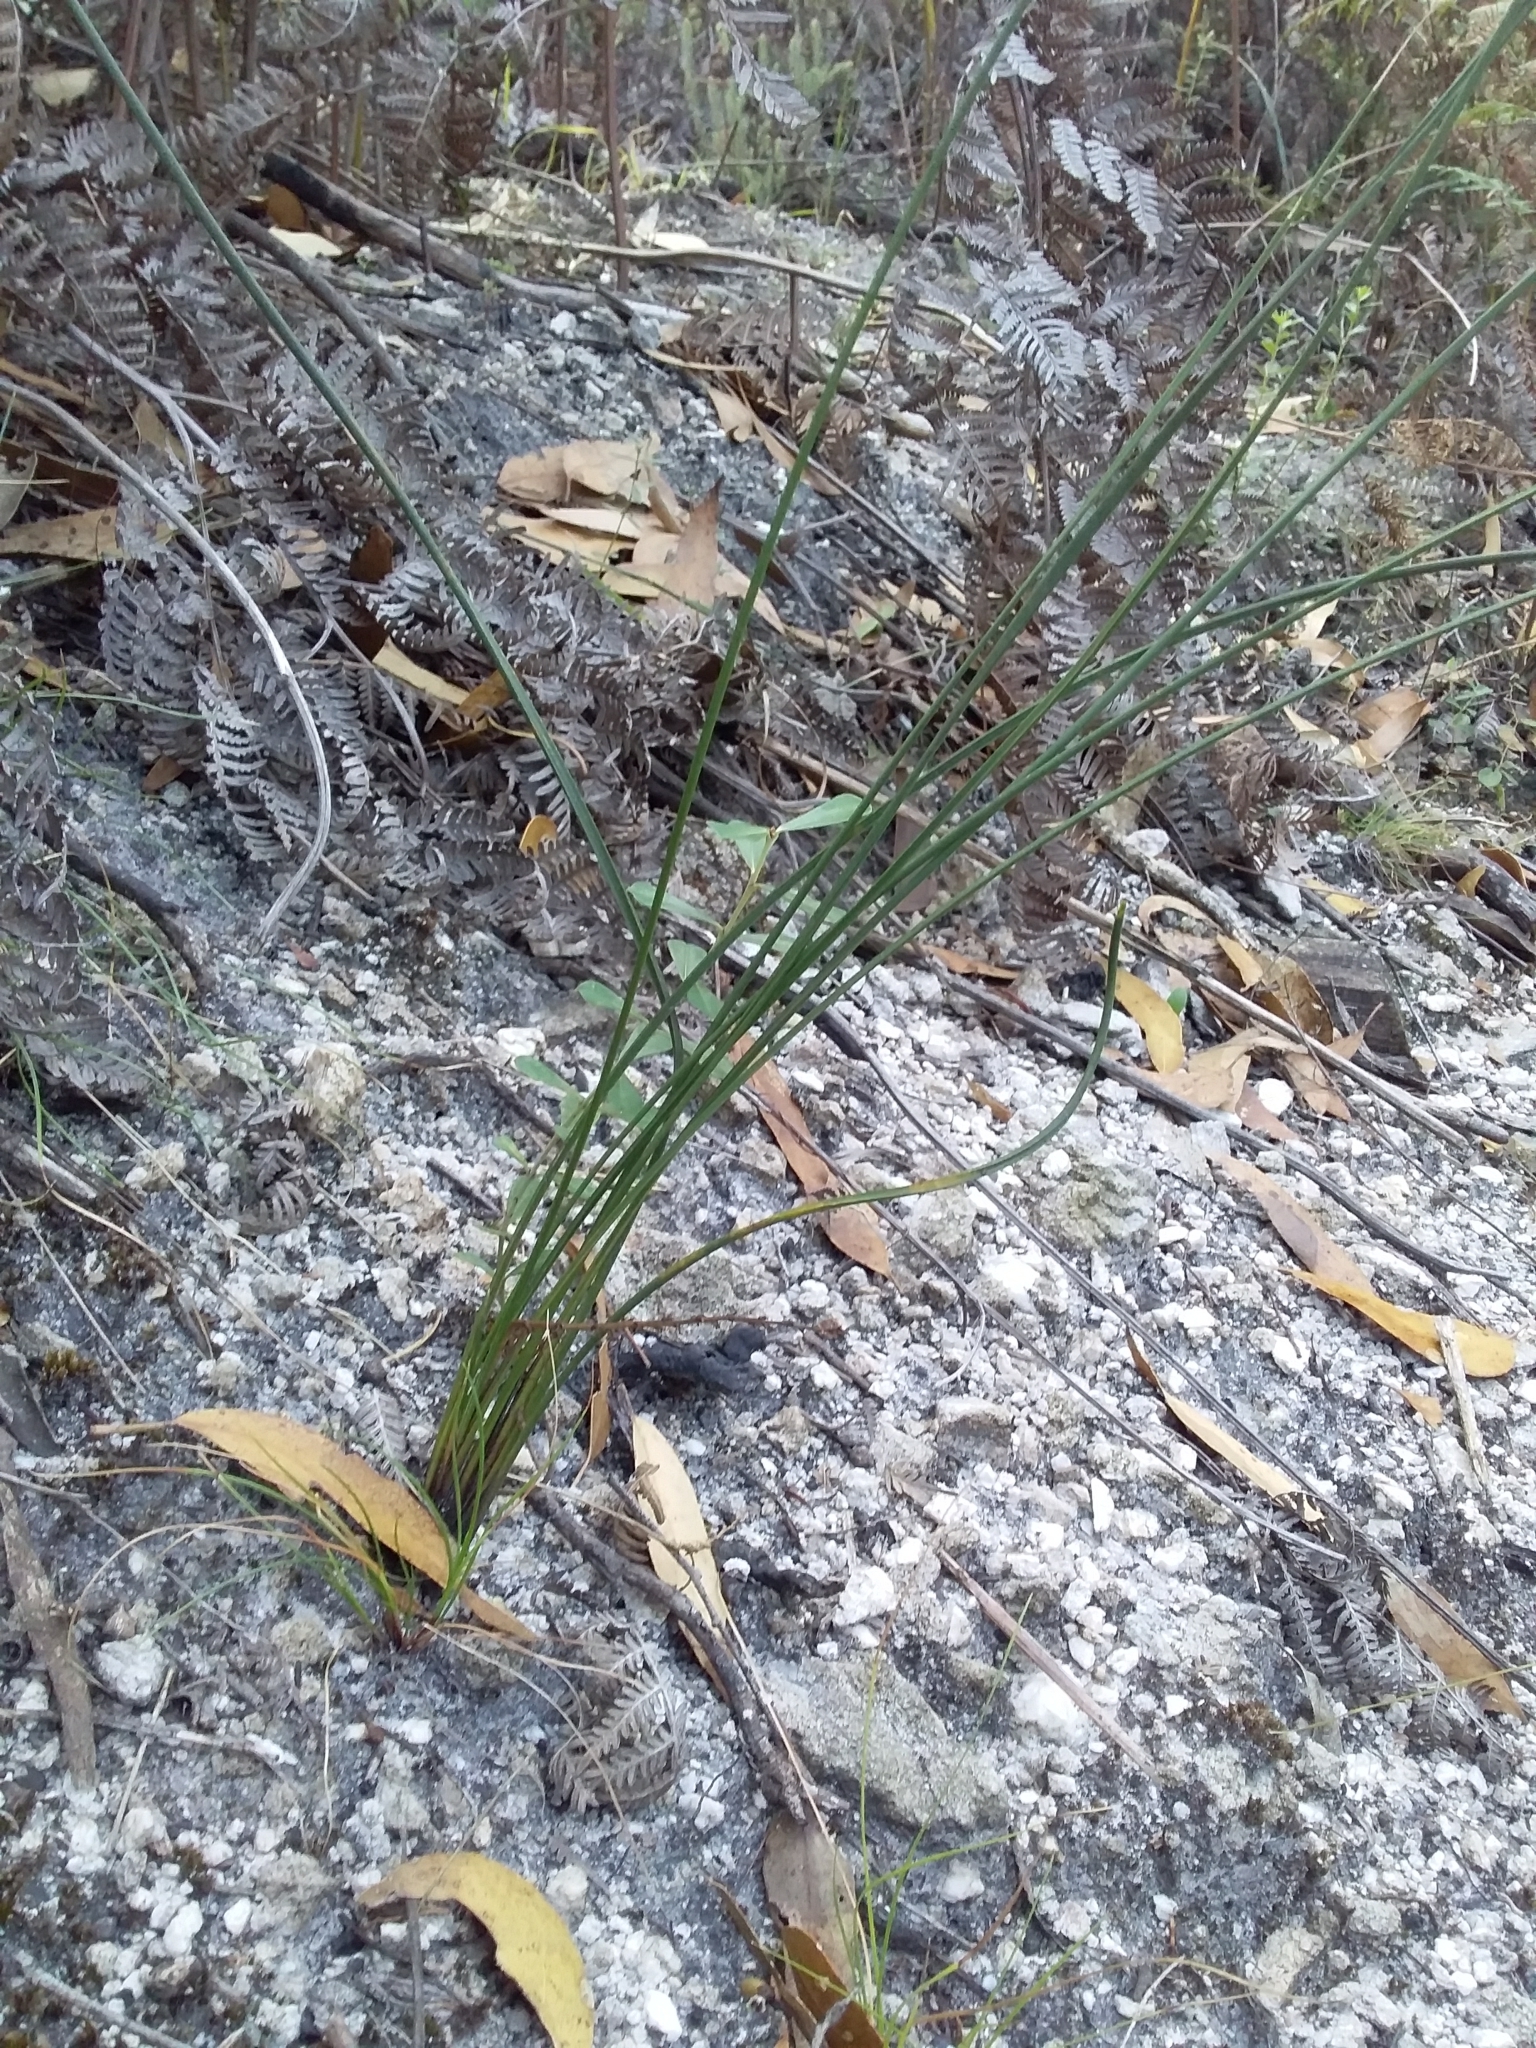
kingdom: Plantae
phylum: Tracheophyta
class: Liliopsida
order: Asparagales
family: Asparagaceae
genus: Lomandra
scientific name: Lomandra micrantha
